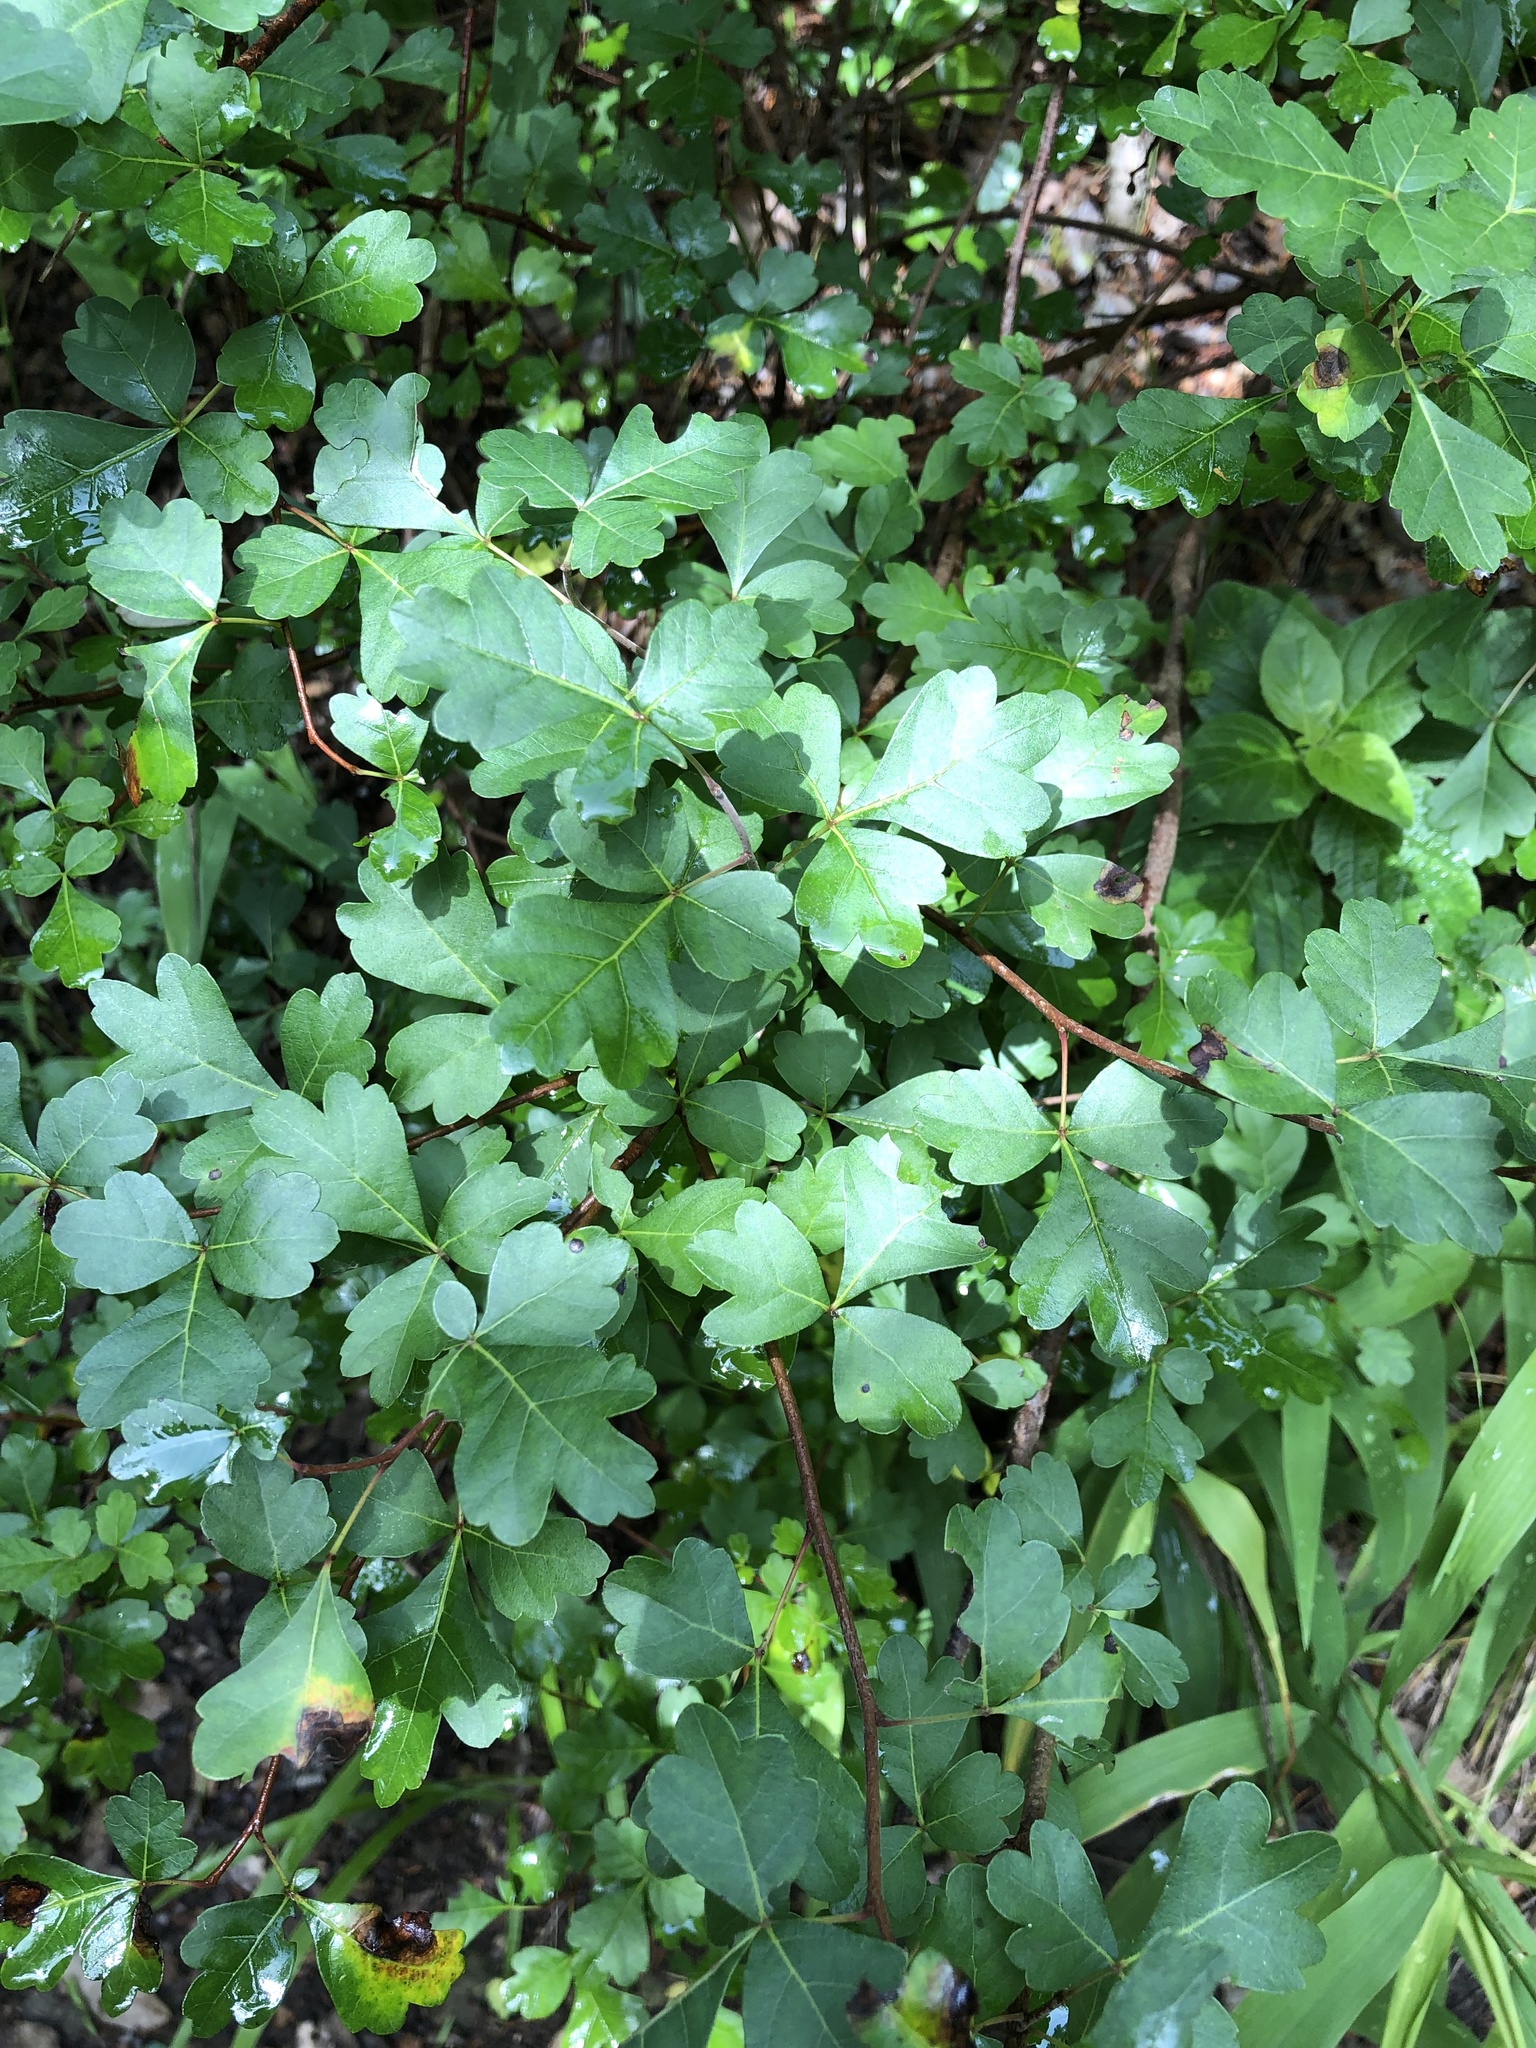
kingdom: Plantae
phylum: Tracheophyta
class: Magnoliopsida
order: Sapindales
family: Anacardiaceae
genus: Rhus
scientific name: Rhus aromatica
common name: Aromatic sumac
